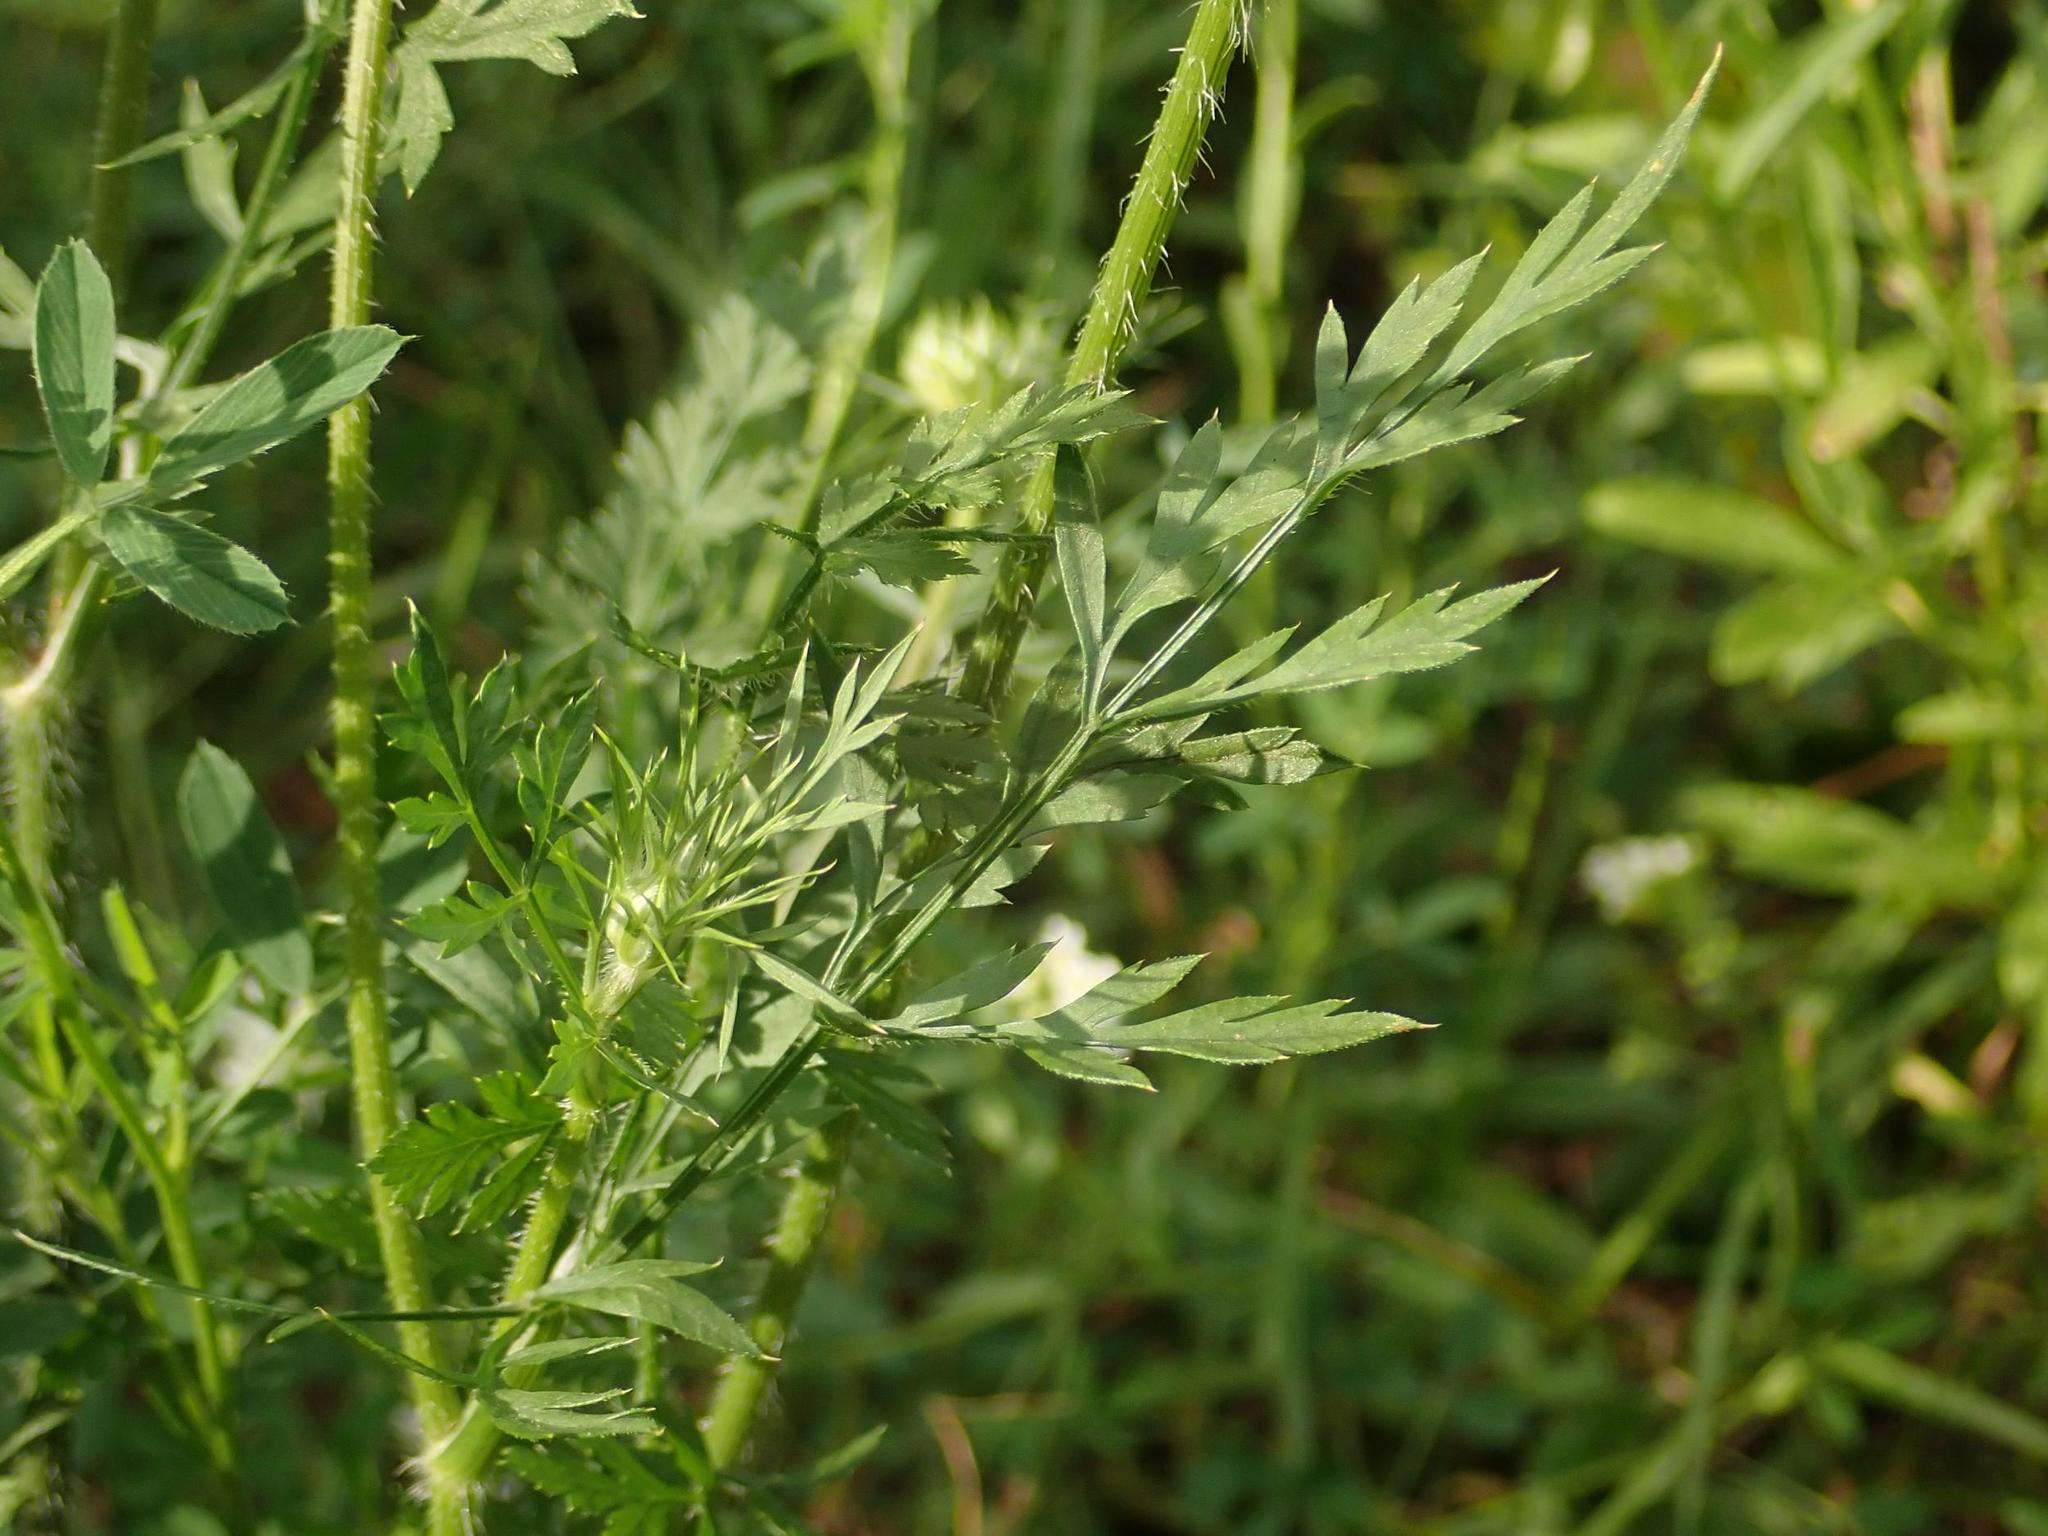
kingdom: Plantae
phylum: Tracheophyta
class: Magnoliopsida
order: Apiales
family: Apiaceae
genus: Daucus
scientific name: Daucus carota
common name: Wild carrot
